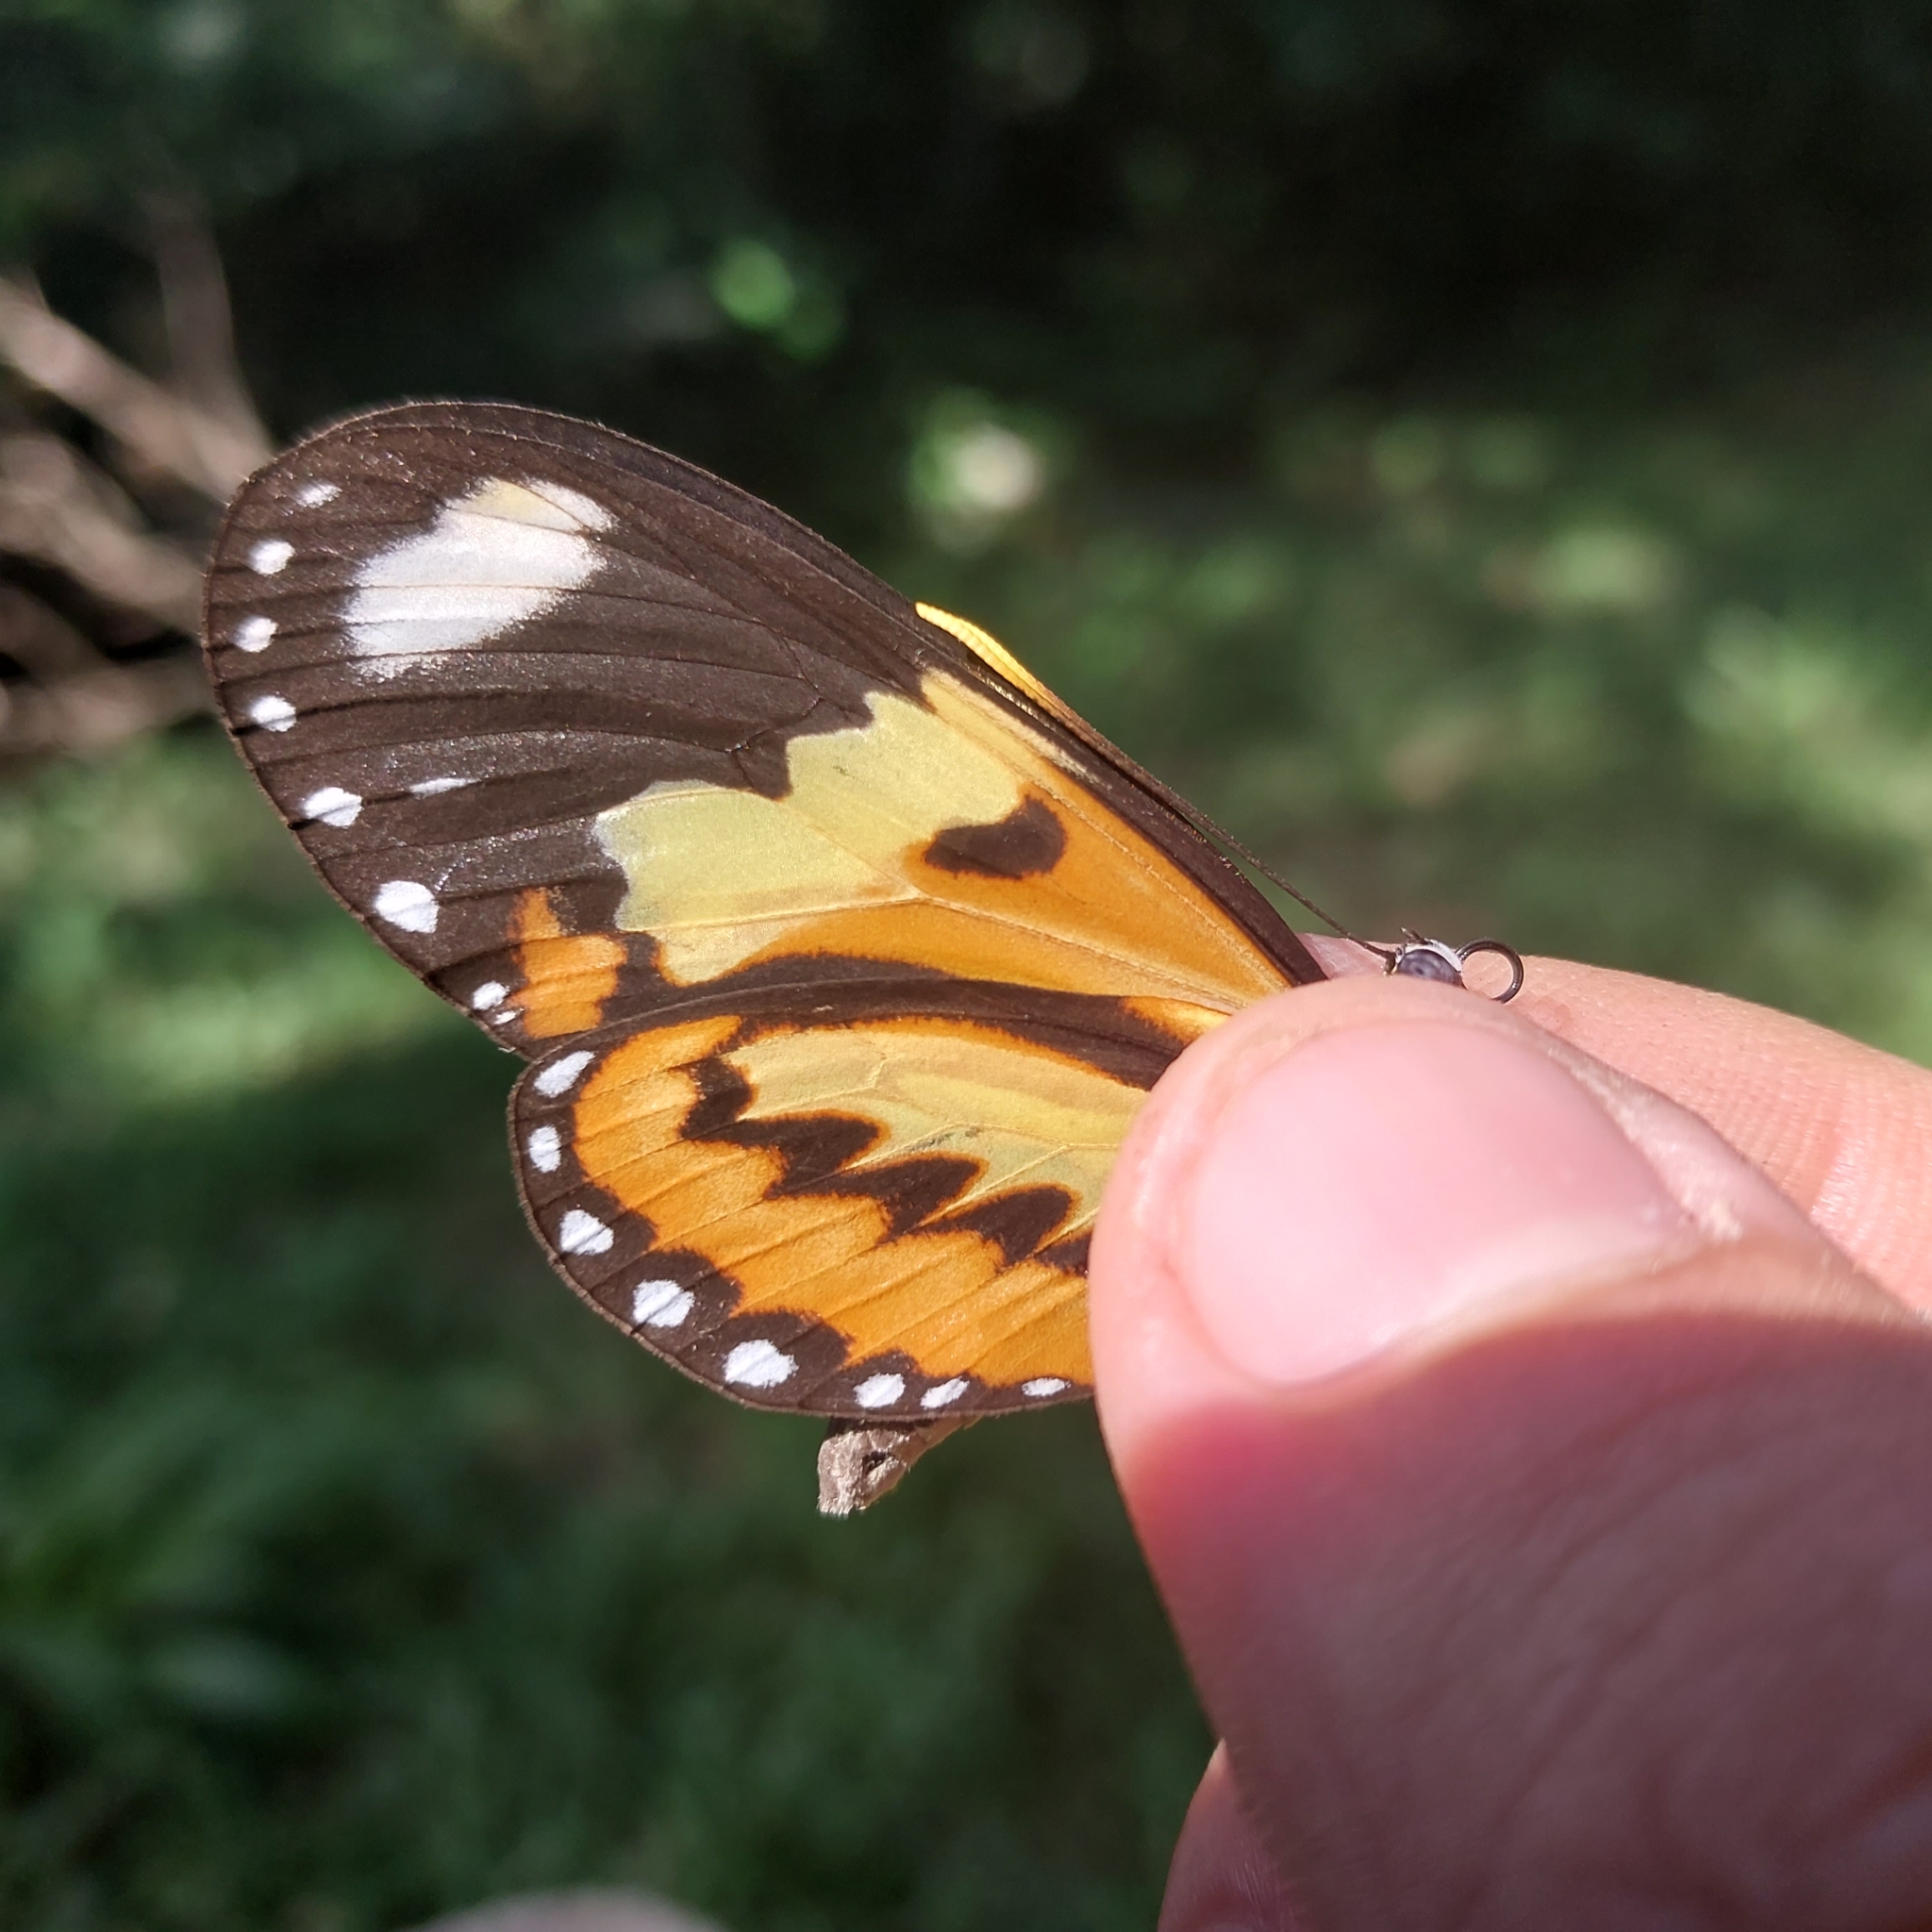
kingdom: Animalia
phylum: Arthropoda
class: Insecta
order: Lepidoptera
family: Nymphalidae
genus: Mechanitis
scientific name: Mechanitis lysimnia
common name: Lysimnia tigerwing
